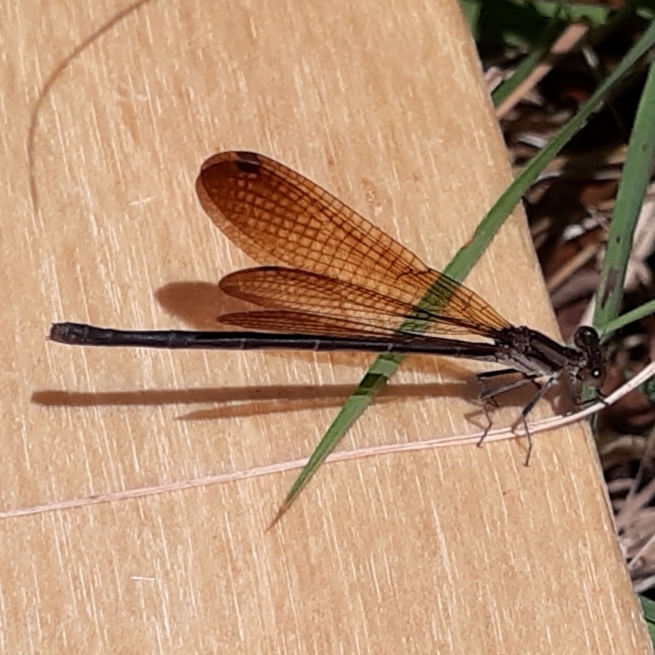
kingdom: Animalia
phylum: Arthropoda
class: Insecta
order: Odonata
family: Coenagrionidae
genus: Argia
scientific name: Argia fumipennis
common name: Variable dancer
